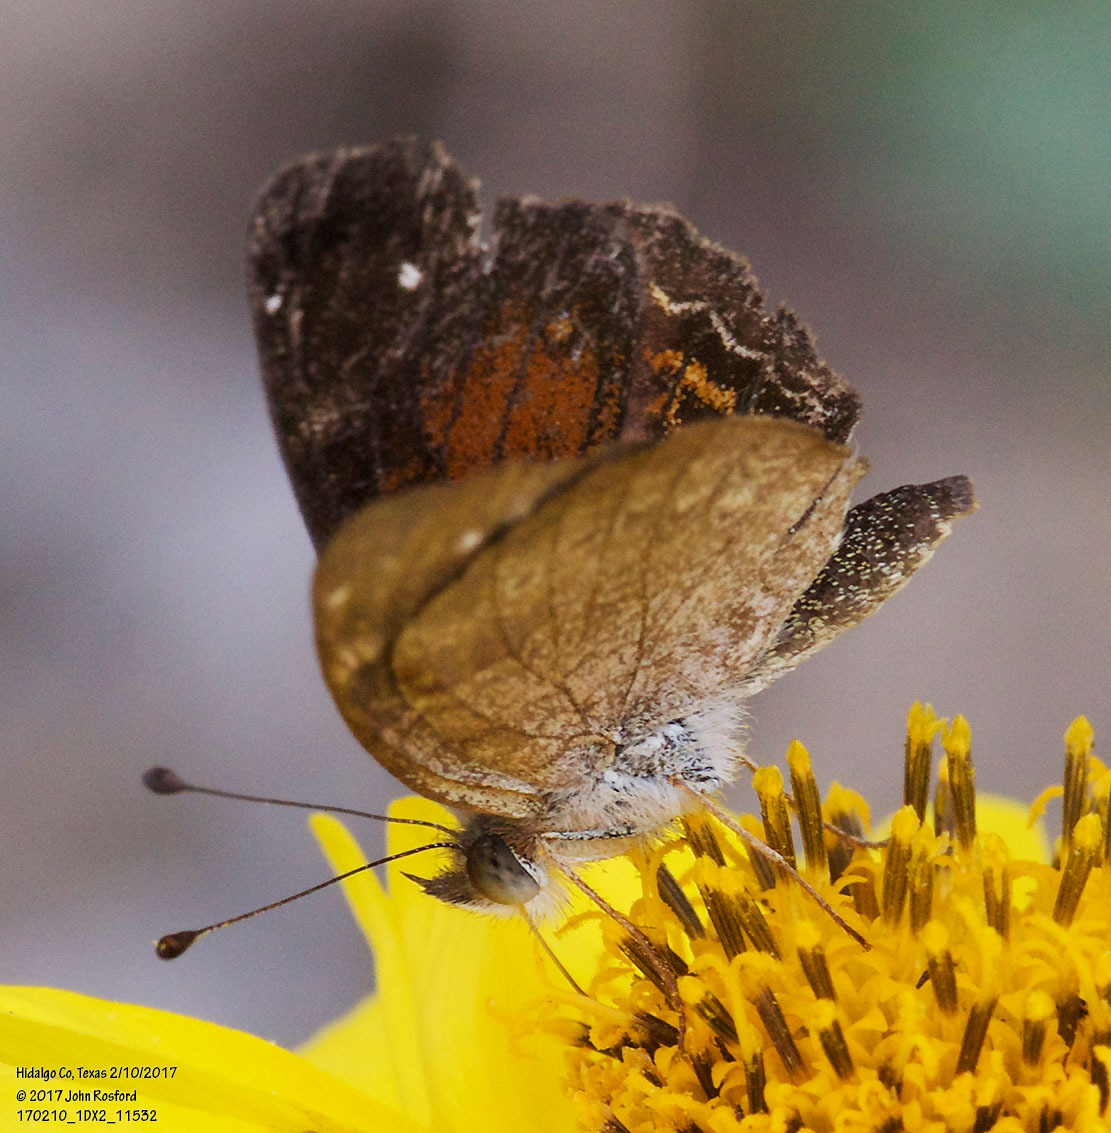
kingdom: Animalia
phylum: Arthropoda
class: Insecta
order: Lepidoptera
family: Nymphalidae
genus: Anthanassa
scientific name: Anthanassa argentea
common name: Chestnut crescent
